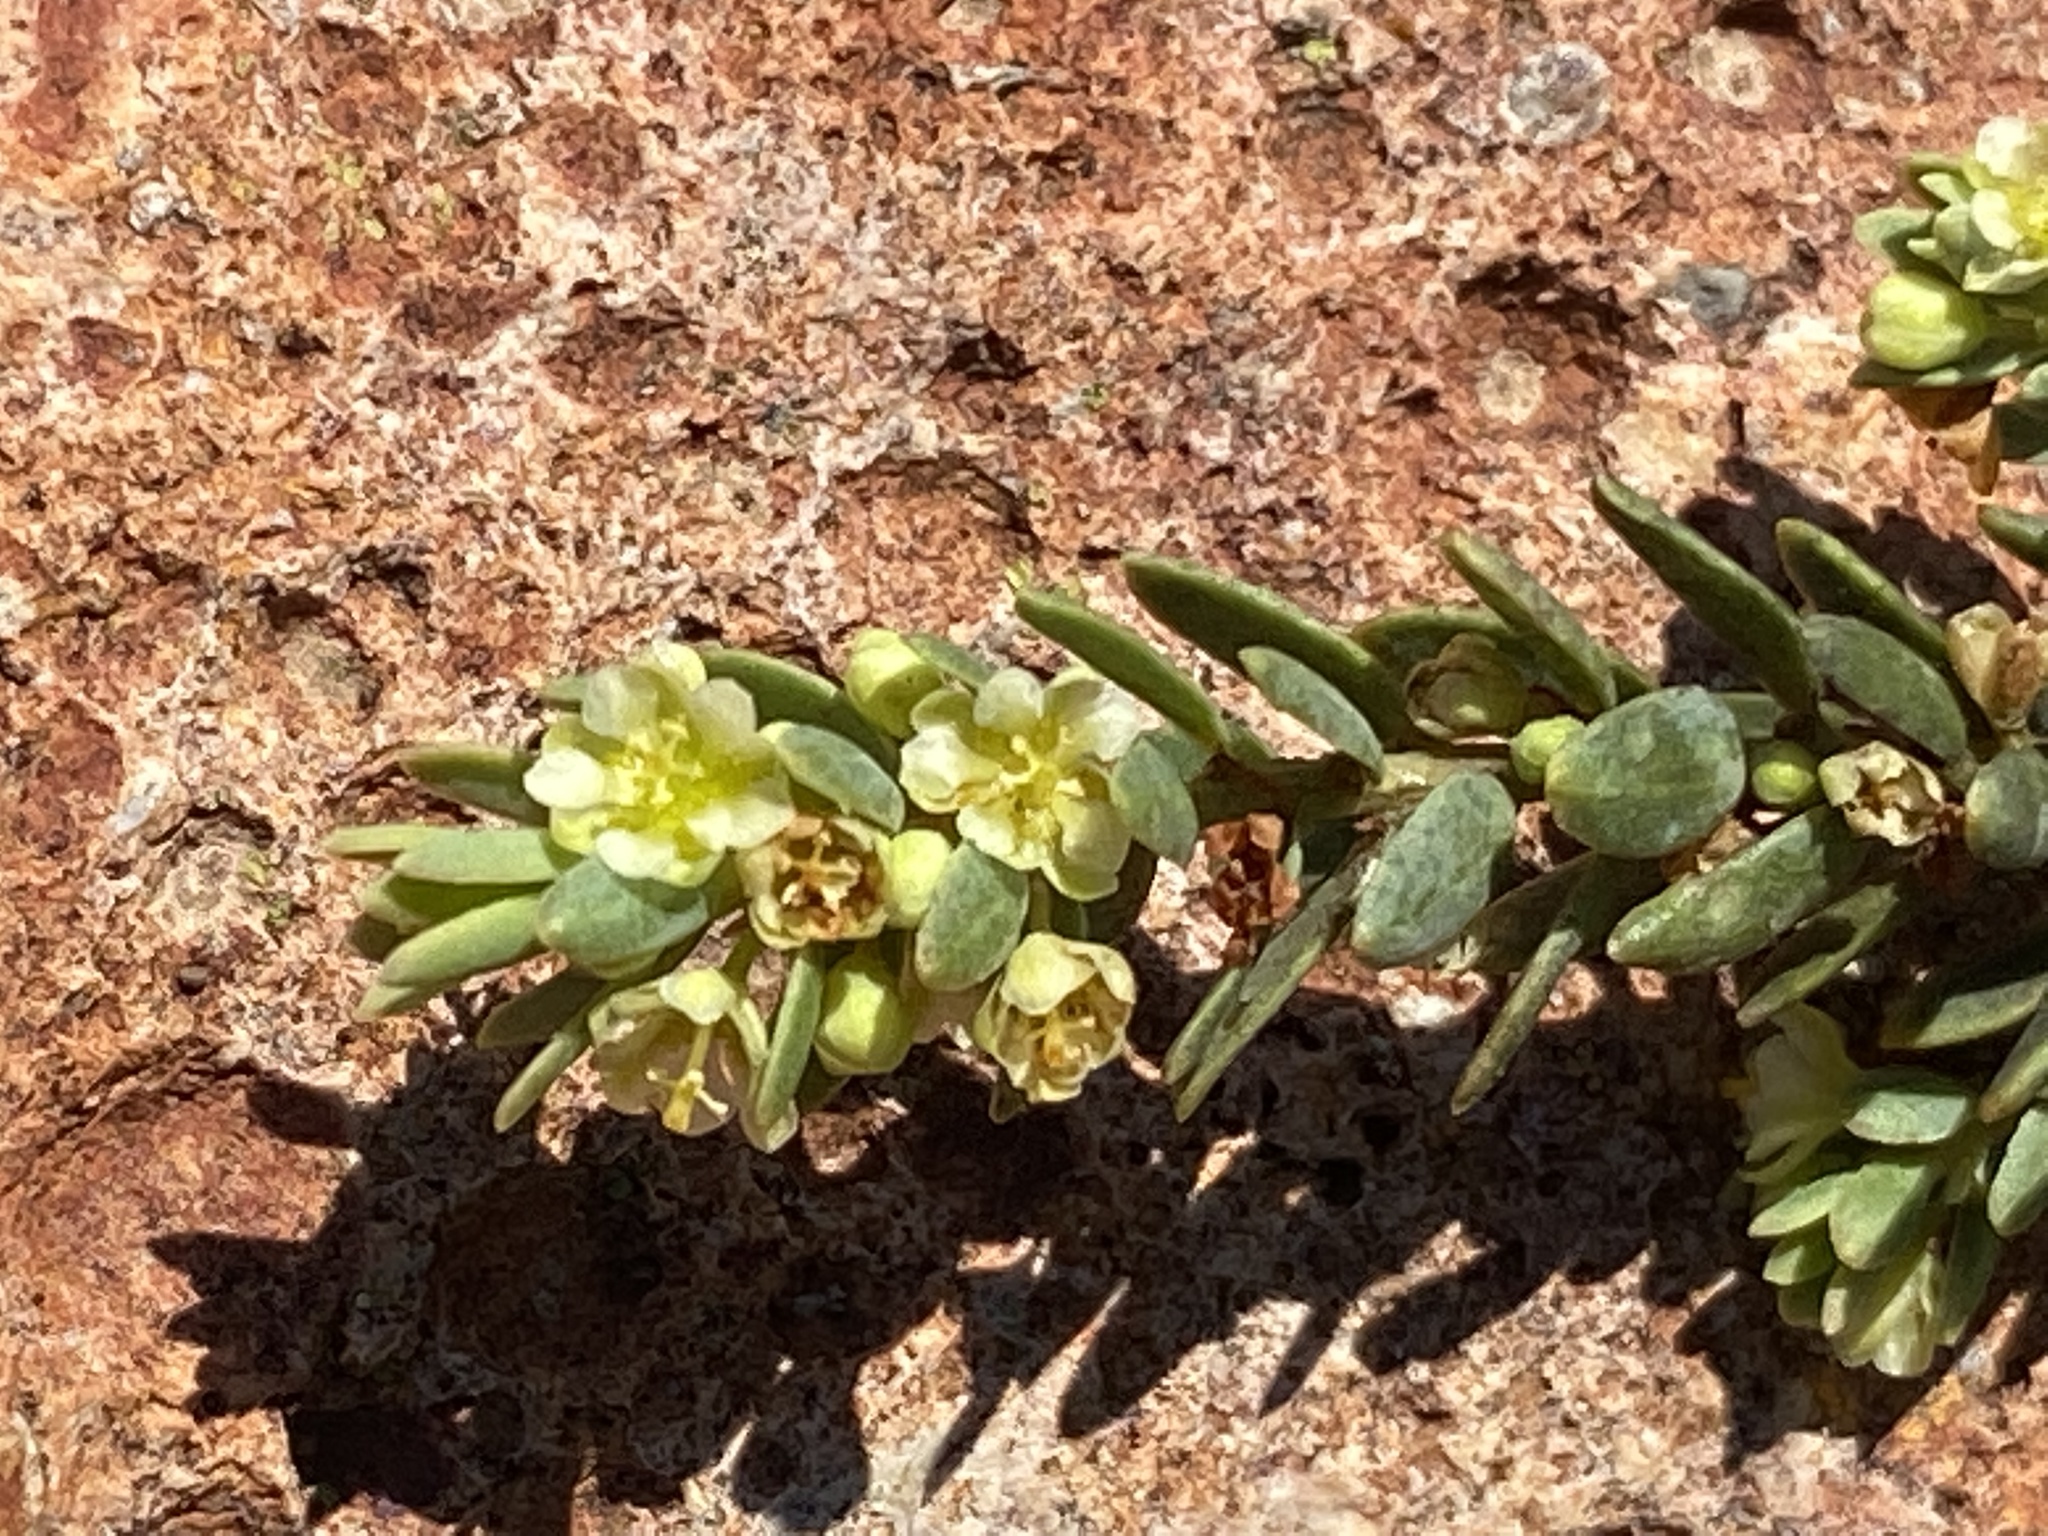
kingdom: Plantae
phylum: Tracheophyta
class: Magnoliopsida
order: Malpighiales
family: Peraceae
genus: Clutia
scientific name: Clutia laxa
